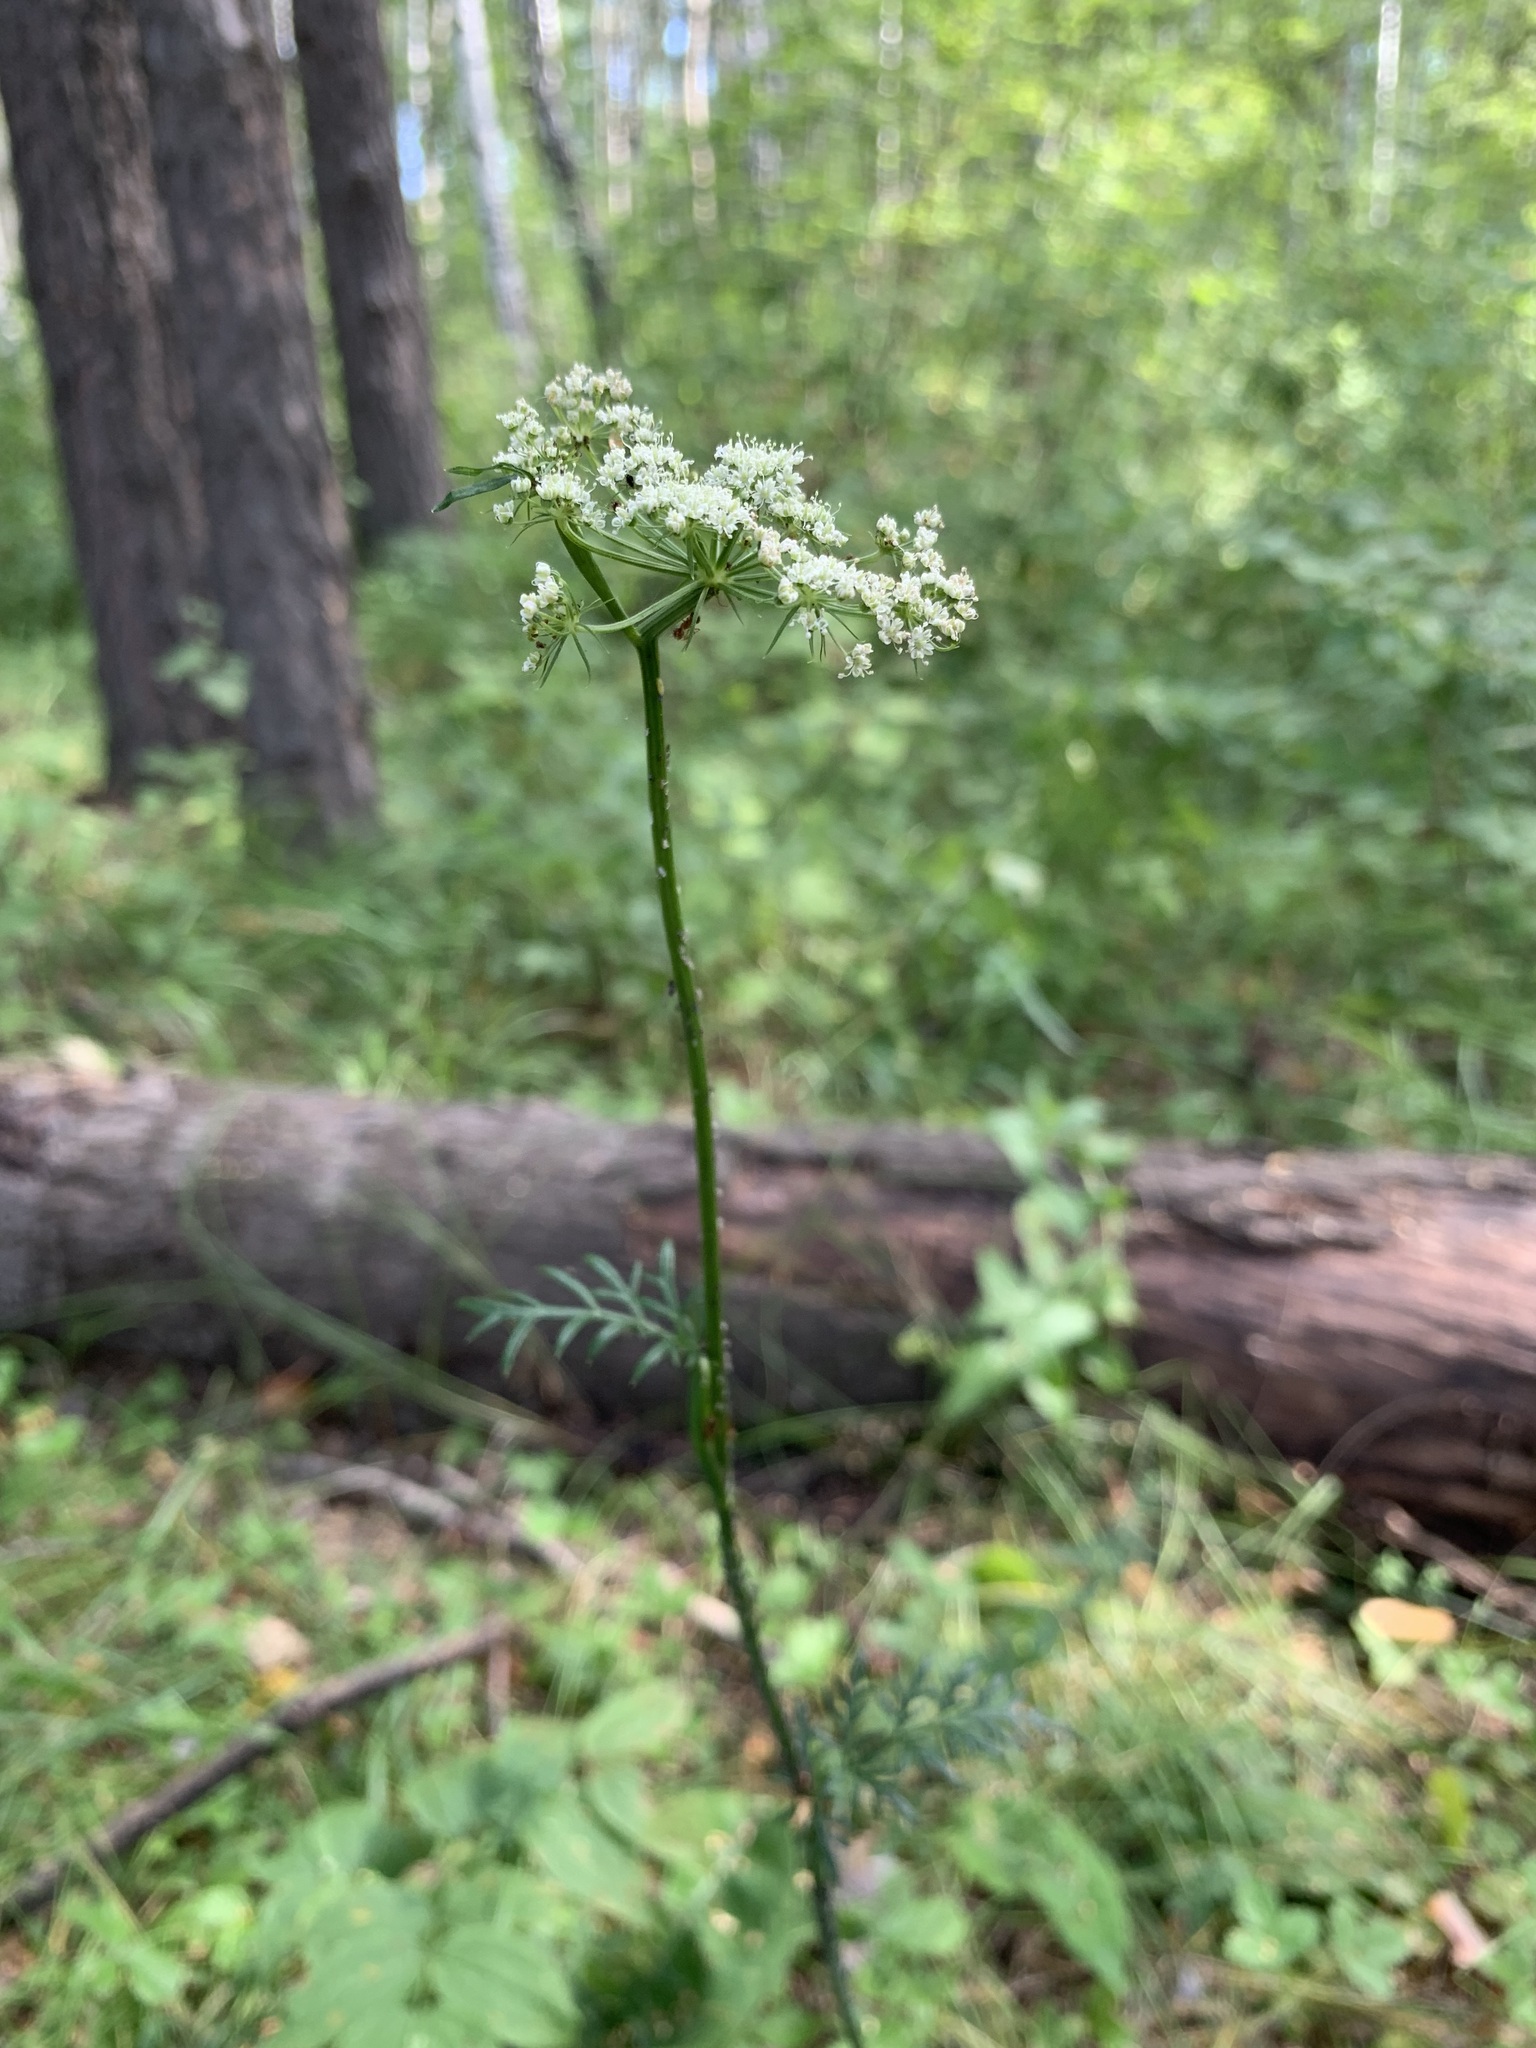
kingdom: Plantae
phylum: Tracheophyta
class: Magnoliopsida
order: Apiales
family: Apiaceae
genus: Kadenia
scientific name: Kadenia dubia
